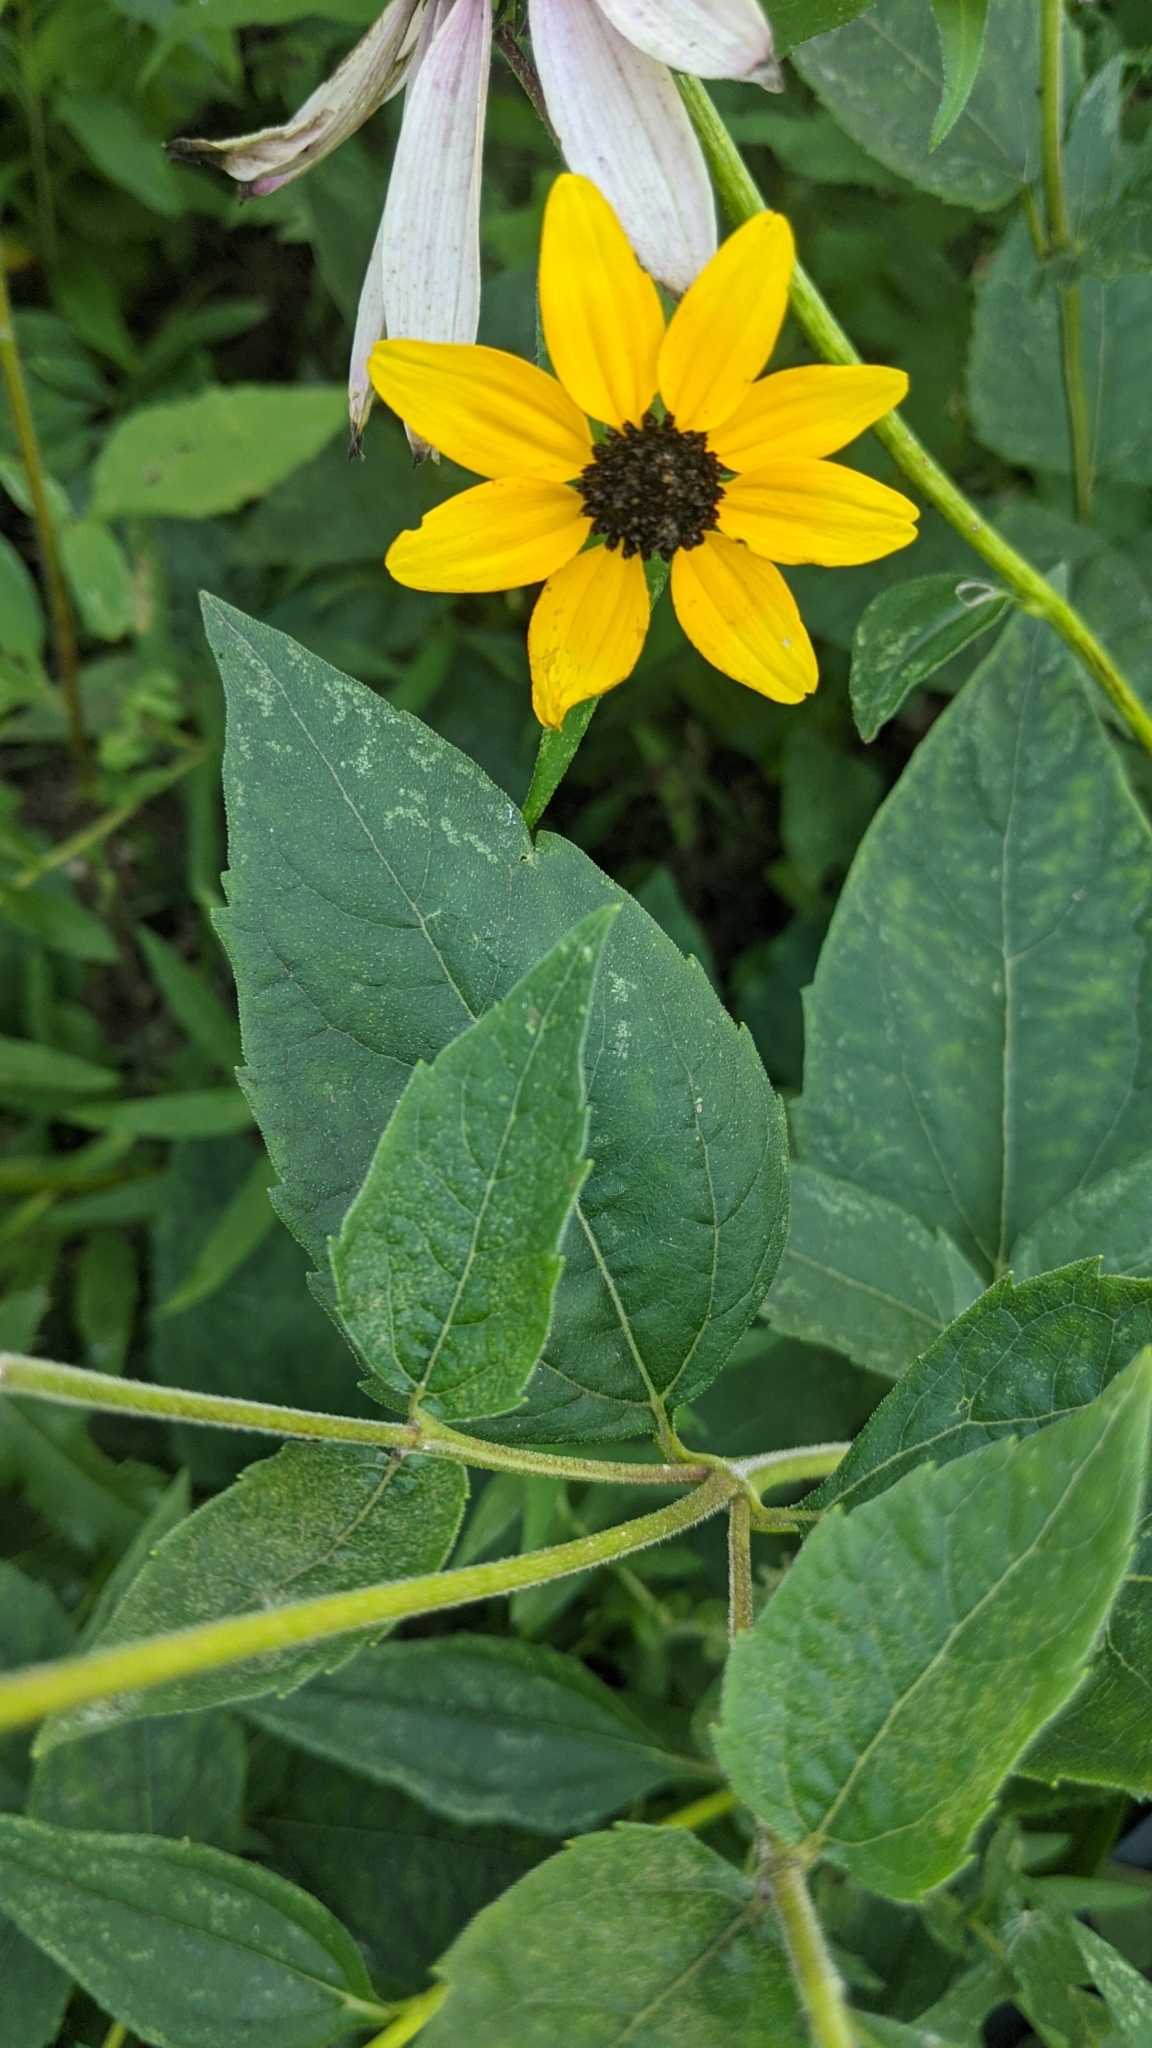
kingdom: Plantae
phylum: Tracheophyta
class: Magnoliopsida
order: Asterales
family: Asteraceae
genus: Rudbeckia
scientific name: Rudbeckia triloba
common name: Thin-leaved coneflower
